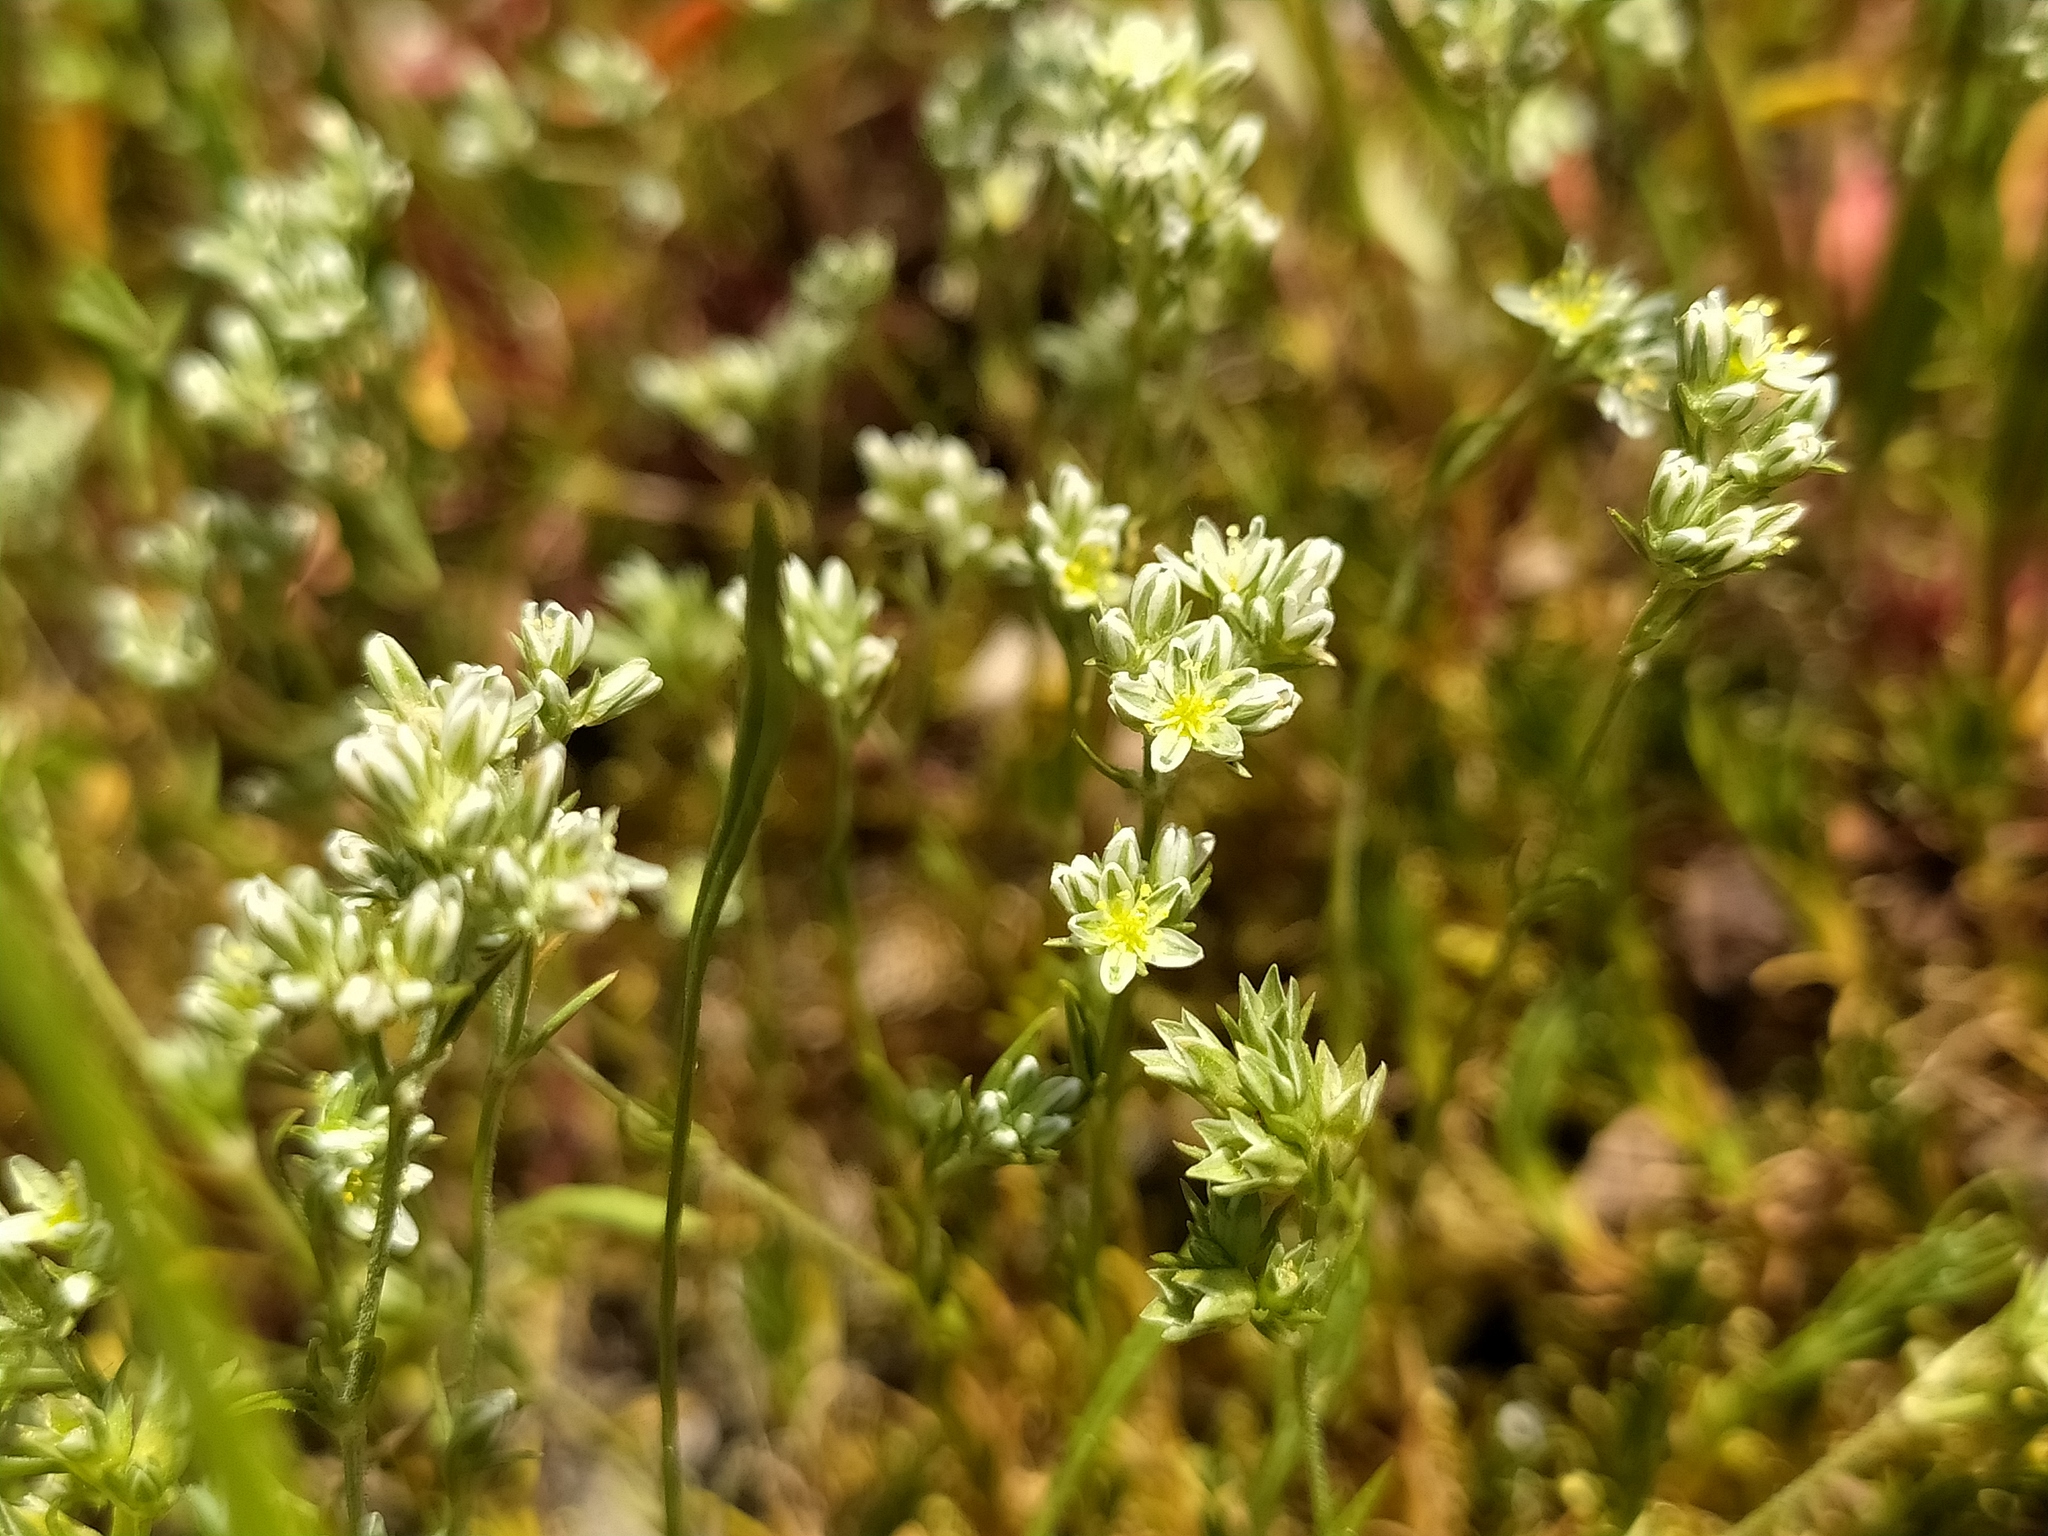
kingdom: Plantae
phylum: Tracheophyta
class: Magnoliopsida
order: Caryophyllales
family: Caryophyllaceae
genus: Scleranthus
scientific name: Scleranthus perennis
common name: Perennial knawel
